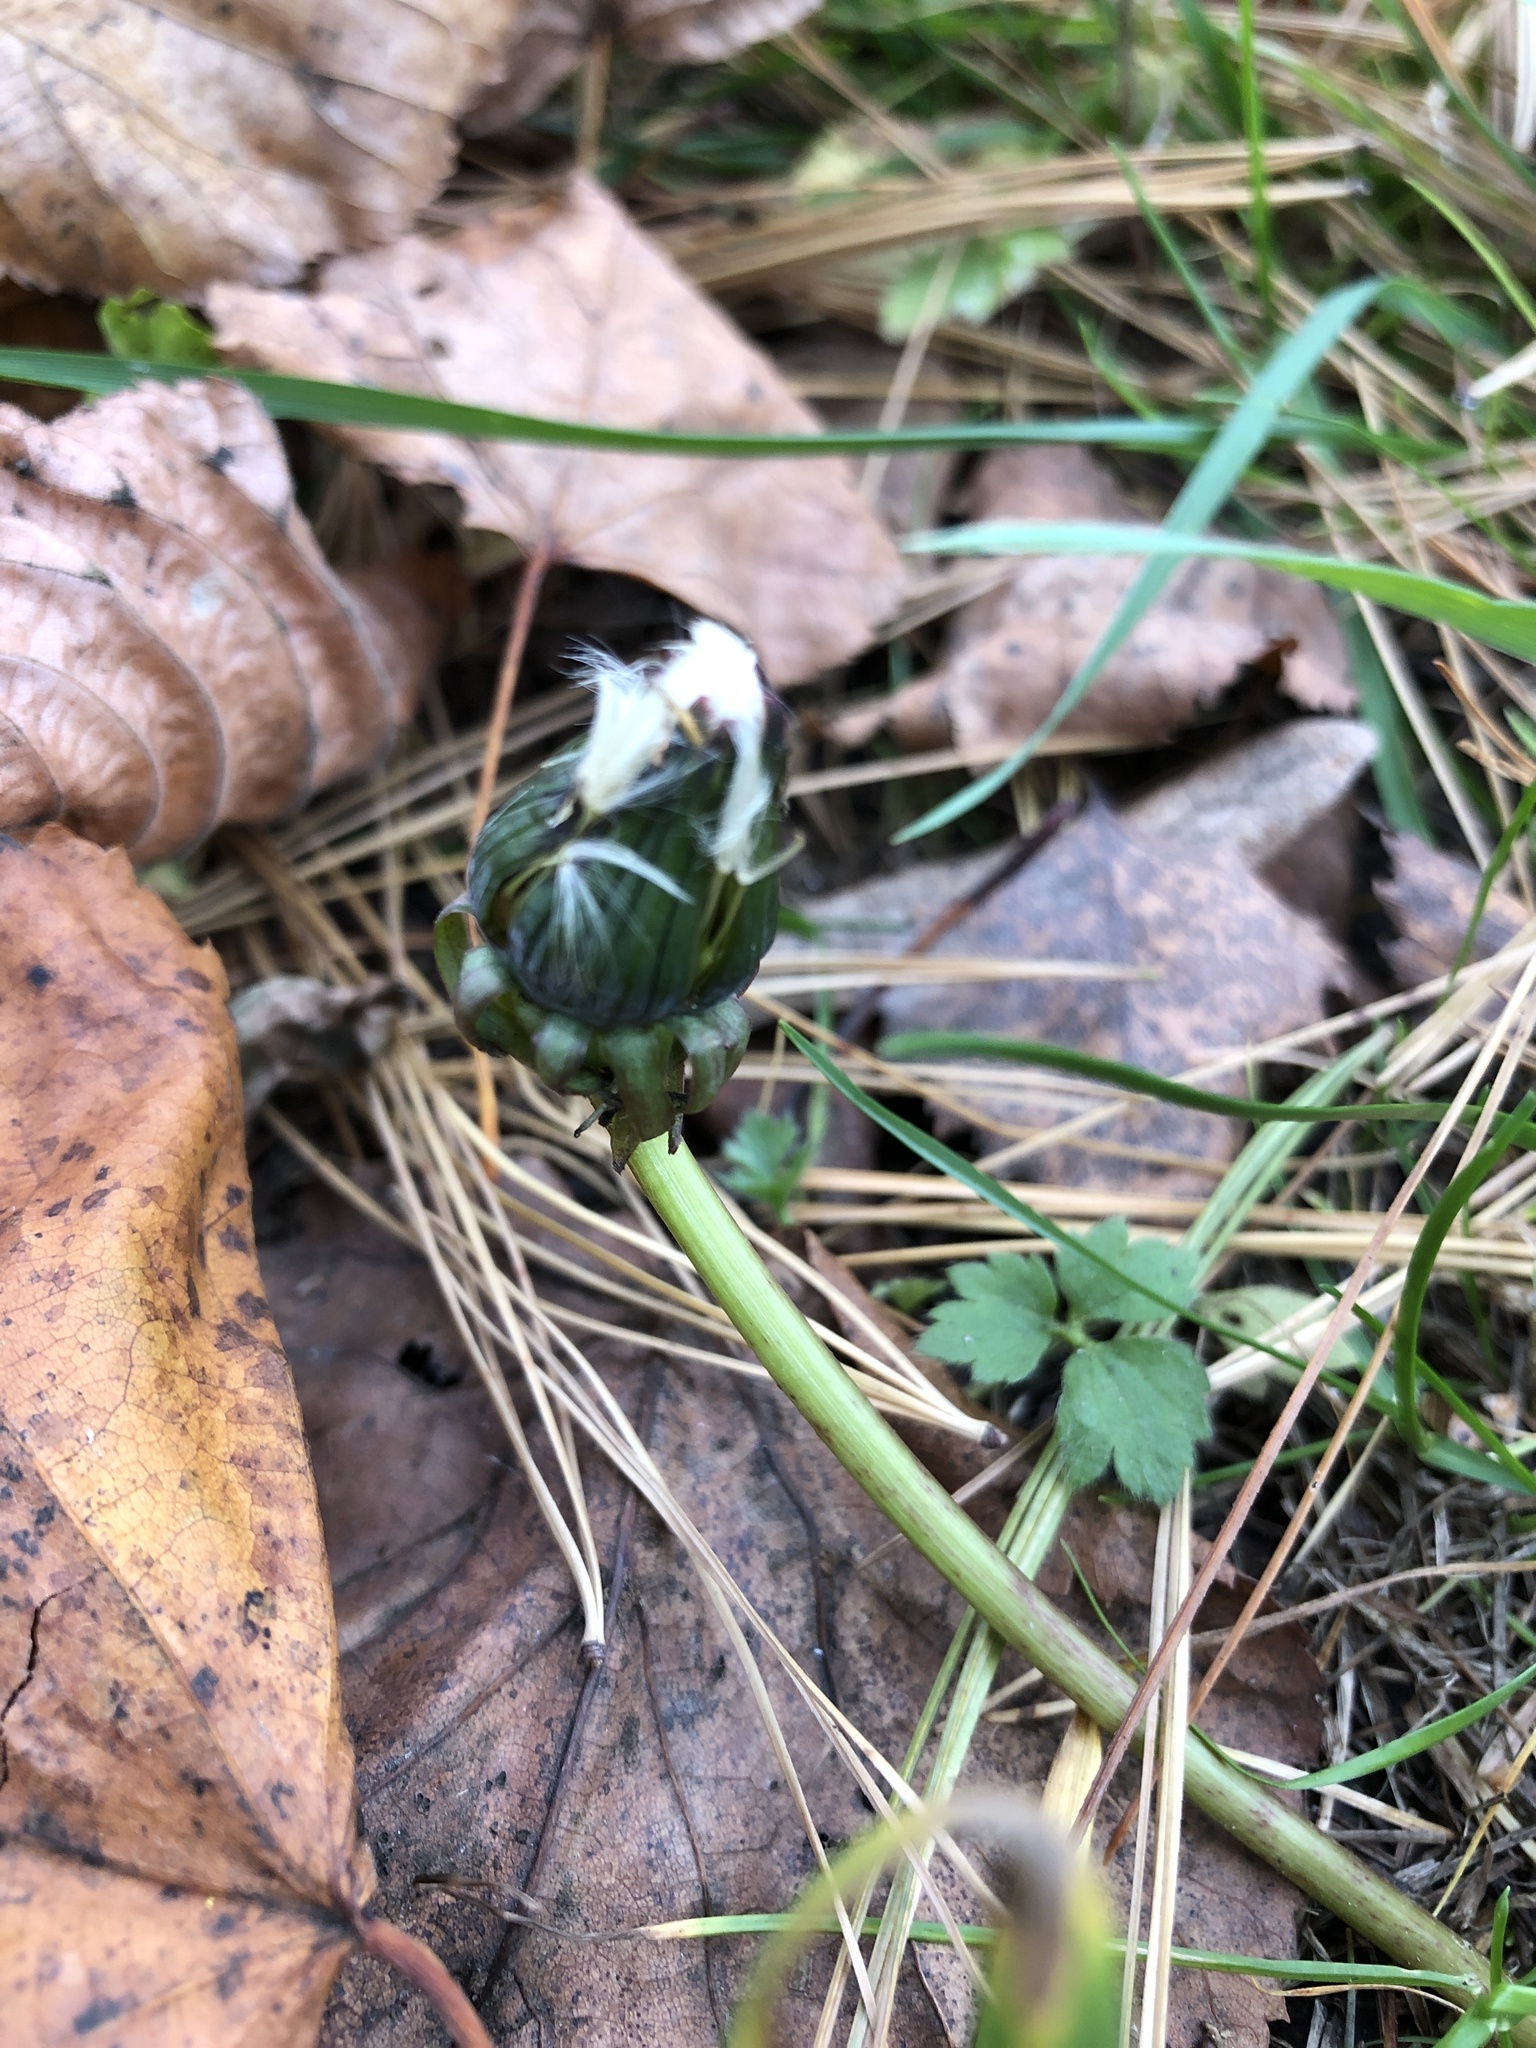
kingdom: Plantae
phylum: Tracheophyta
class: Magnoliopsida
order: Asterales
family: Asteraceae
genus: Taraxacum
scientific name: Taraxacum officinale
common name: Common dandelion
